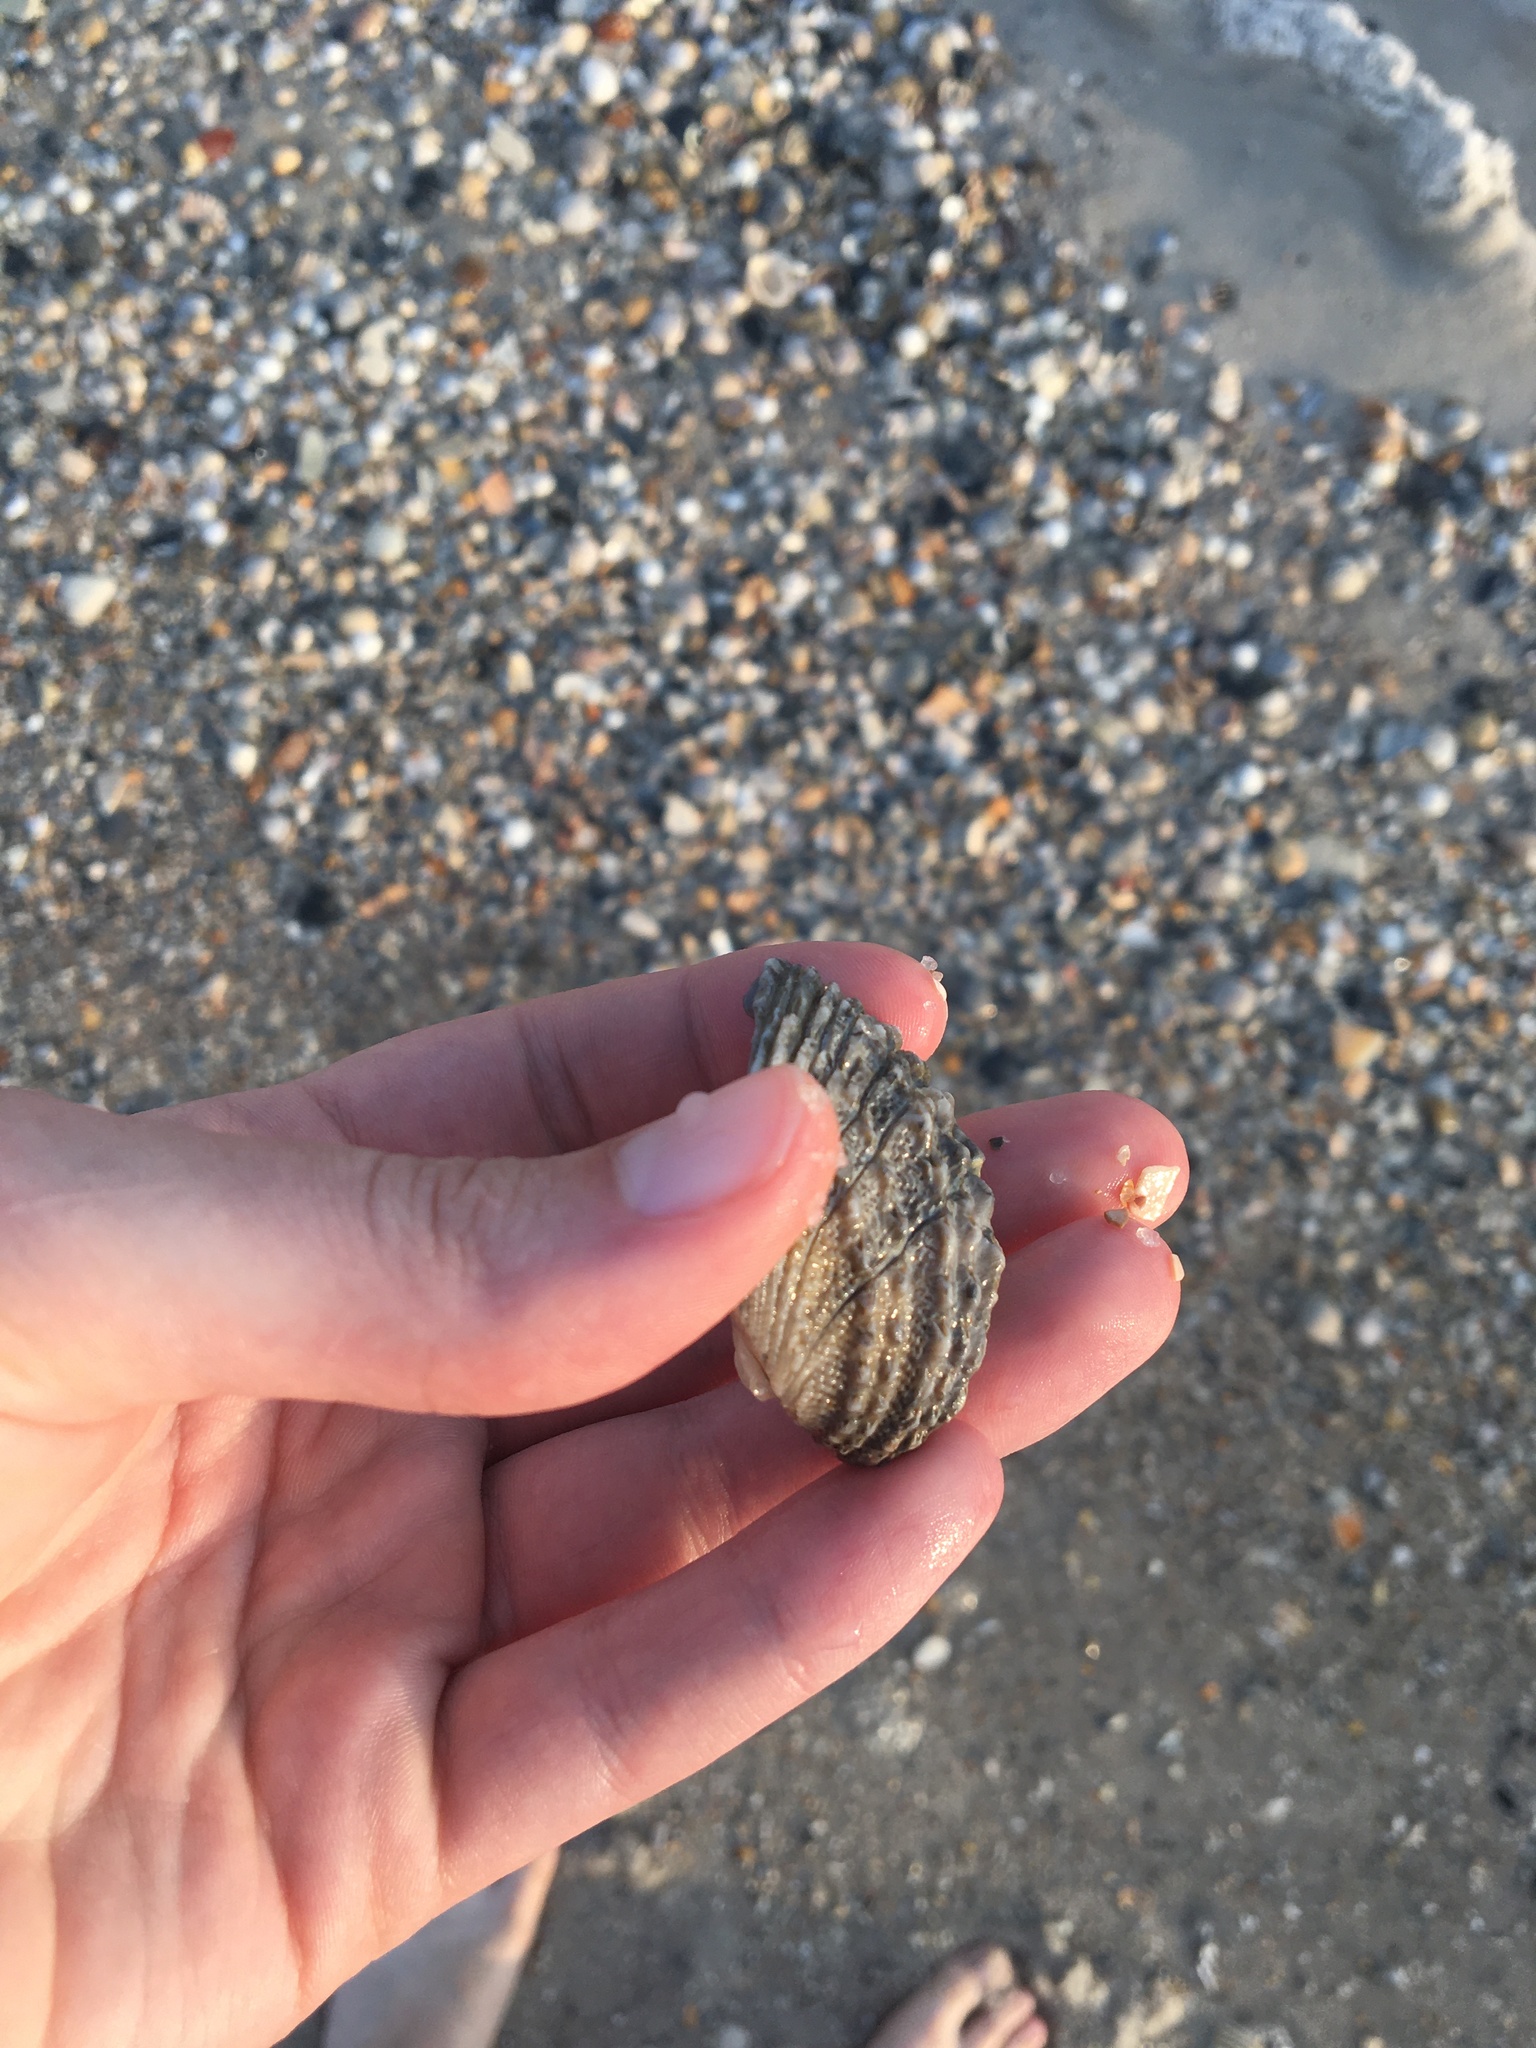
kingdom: Animalia
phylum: Mollusca
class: Bivalvia
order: Venerida
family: Chamidae
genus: Arcinella
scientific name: Arcinella cornuta
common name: Florida spiny jewel box
